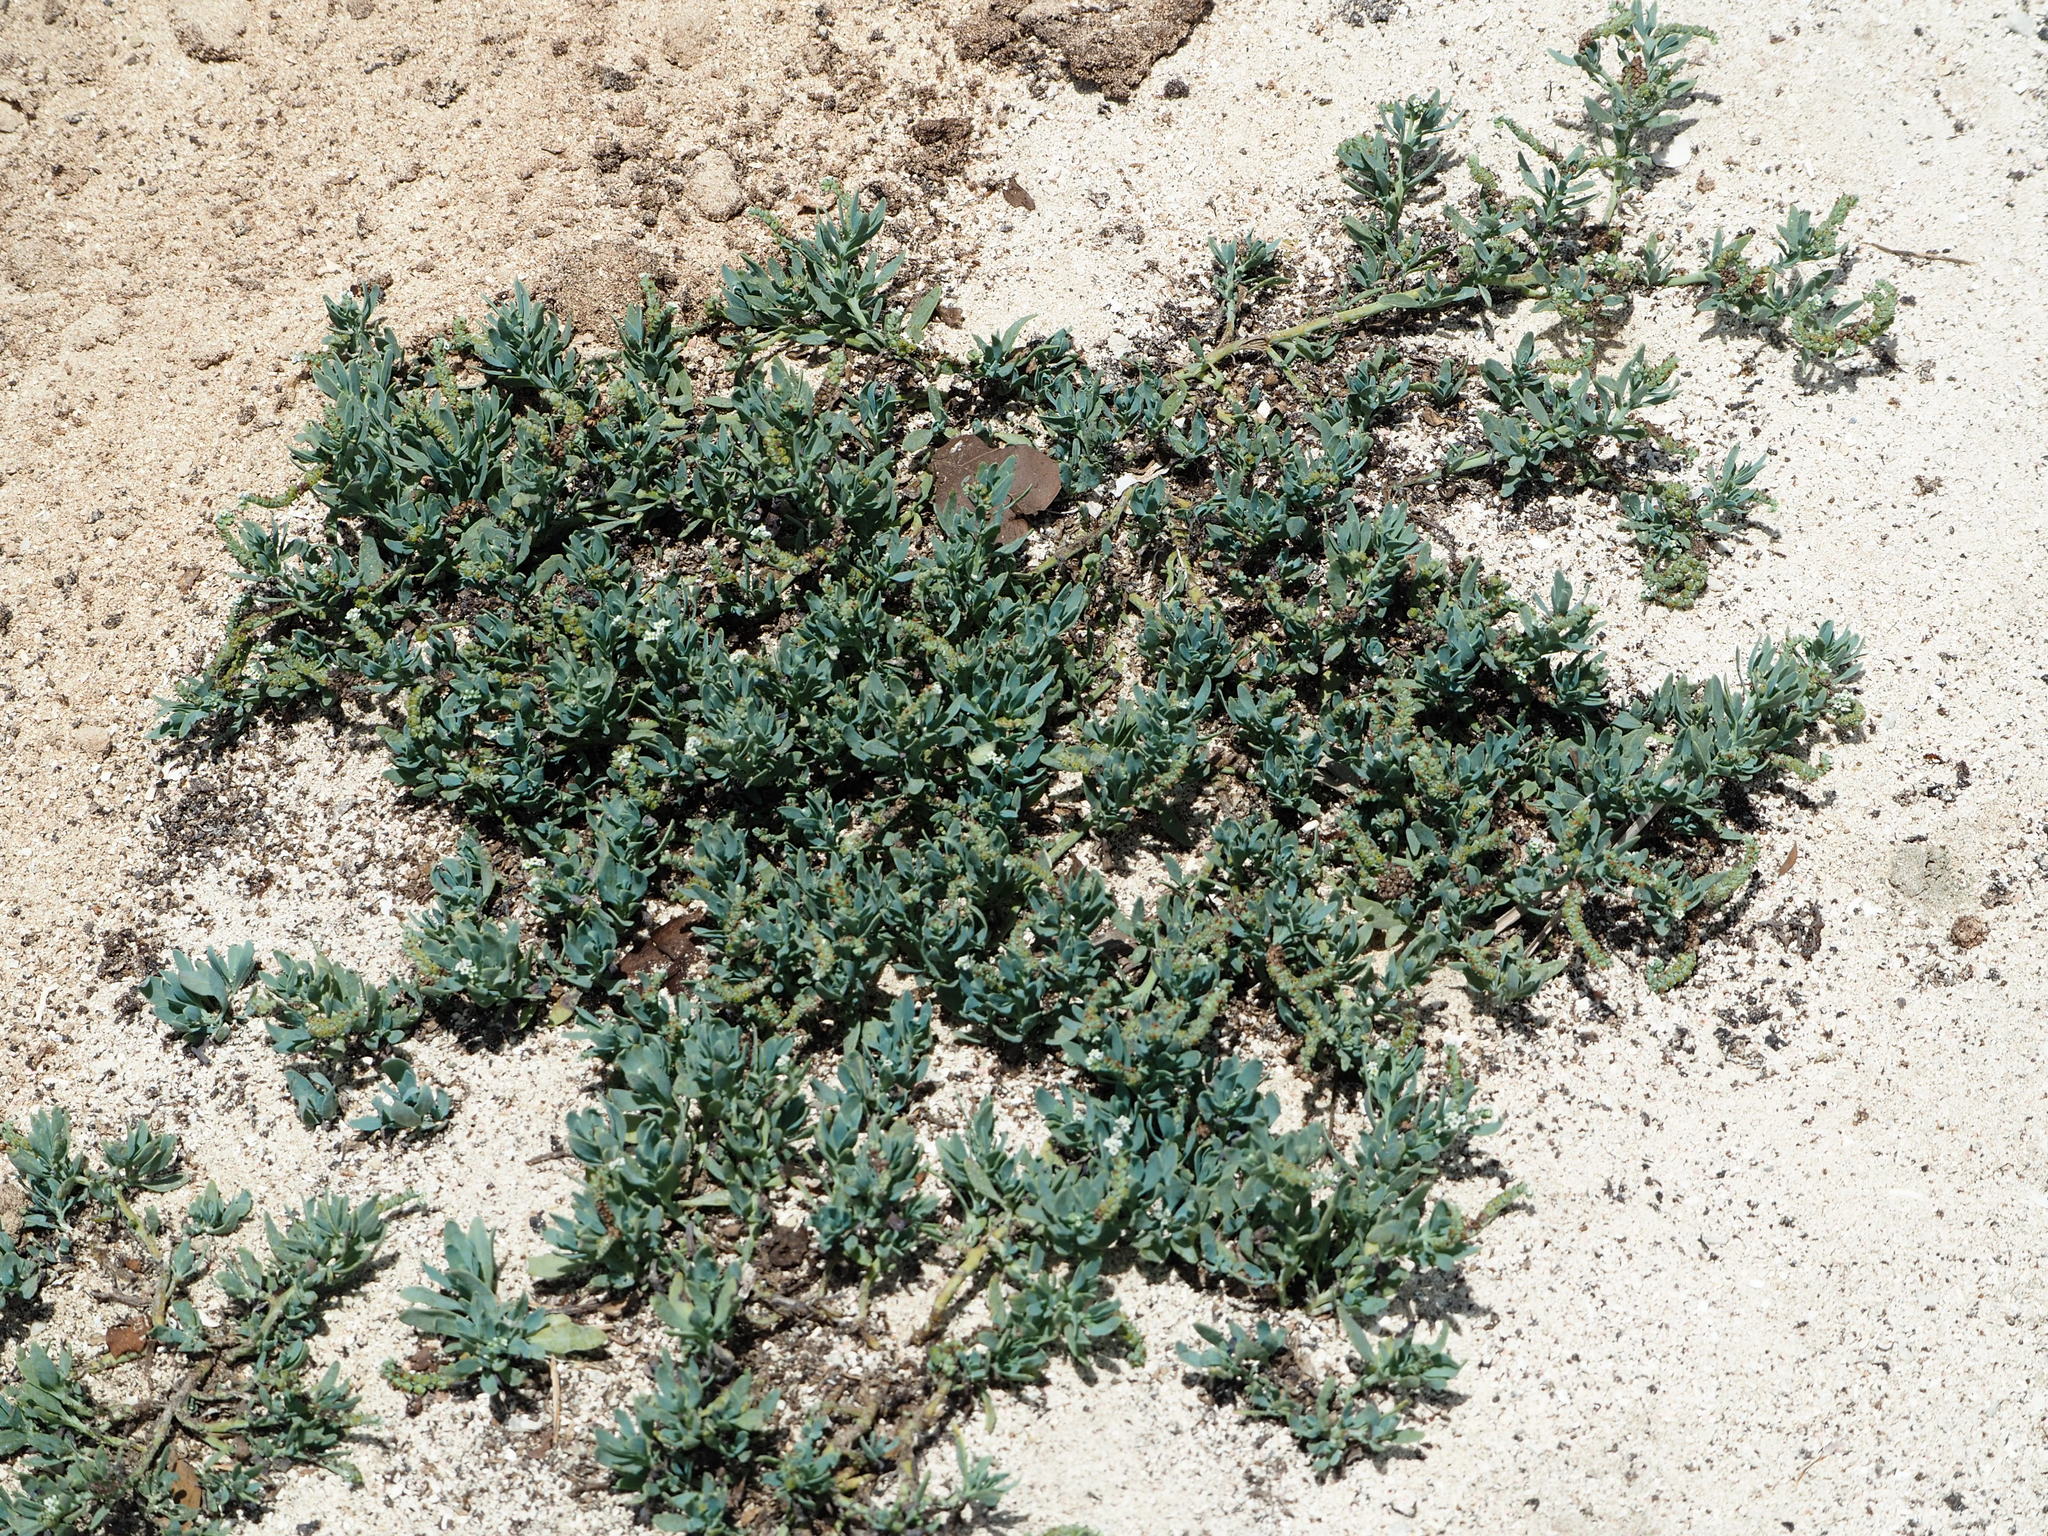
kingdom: Plantae
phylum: Tracheophyta
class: Magnoliopsida
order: Boraginales
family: Heliotropiaceae
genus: Heliotropium
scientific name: Heliotropium curassavicum
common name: Seaside heliotrope
